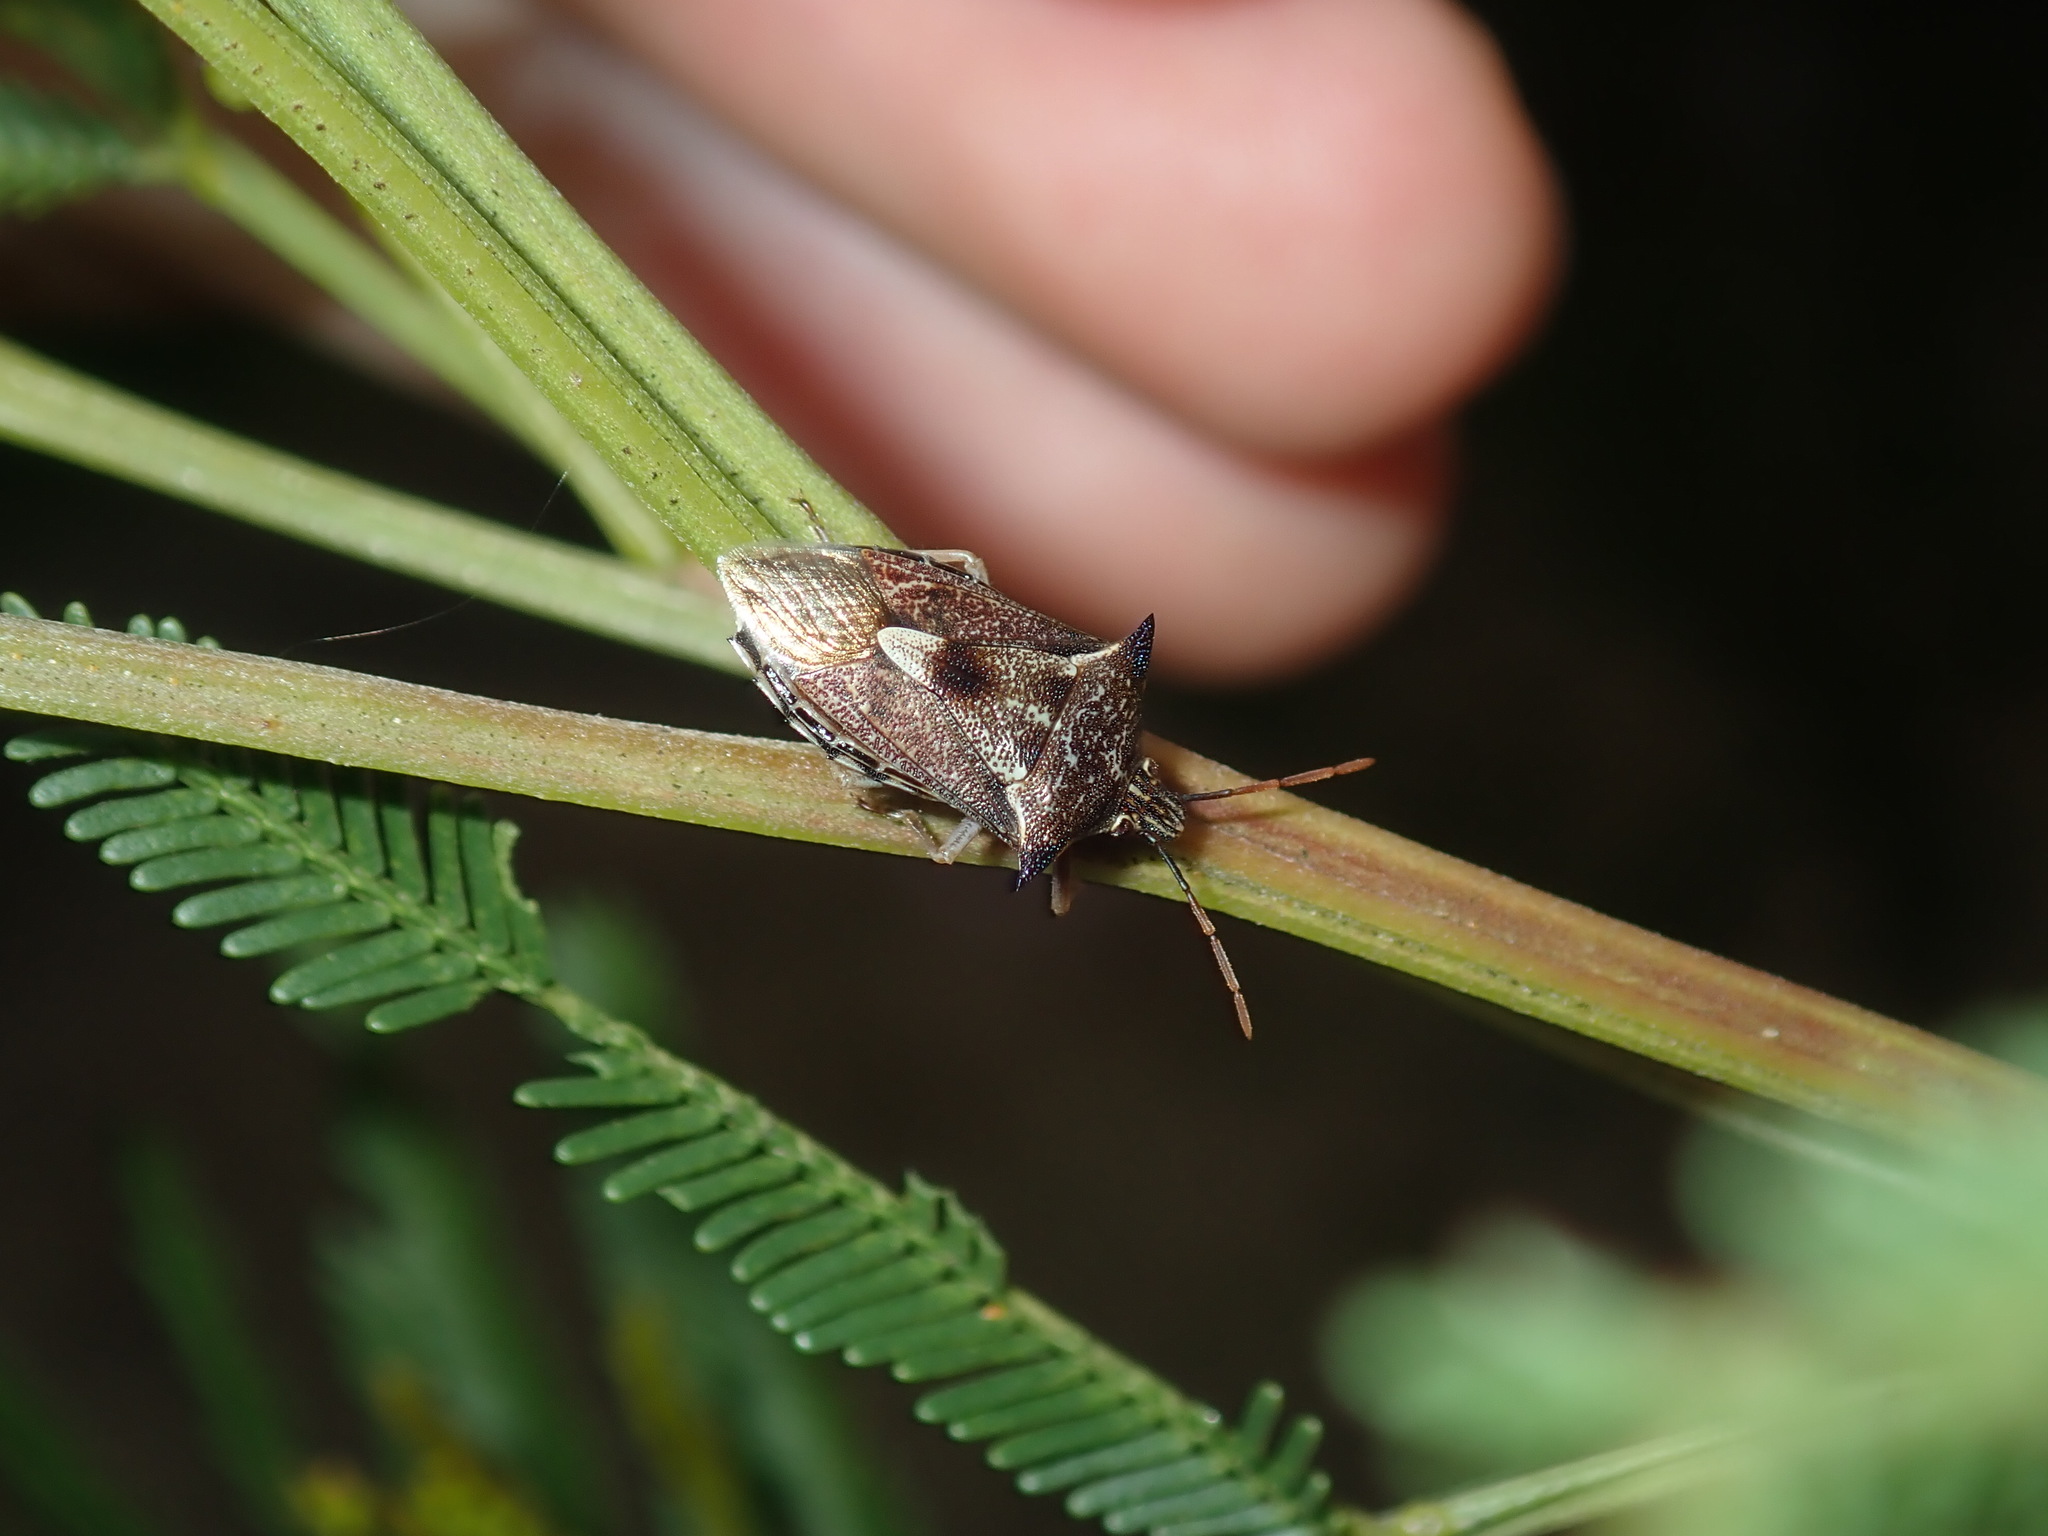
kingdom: Animalia
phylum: Arthropoda
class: Insecta
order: Hemiptera
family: Pentatomidae
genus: Oechalia
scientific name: Oechalia schellenbergii
